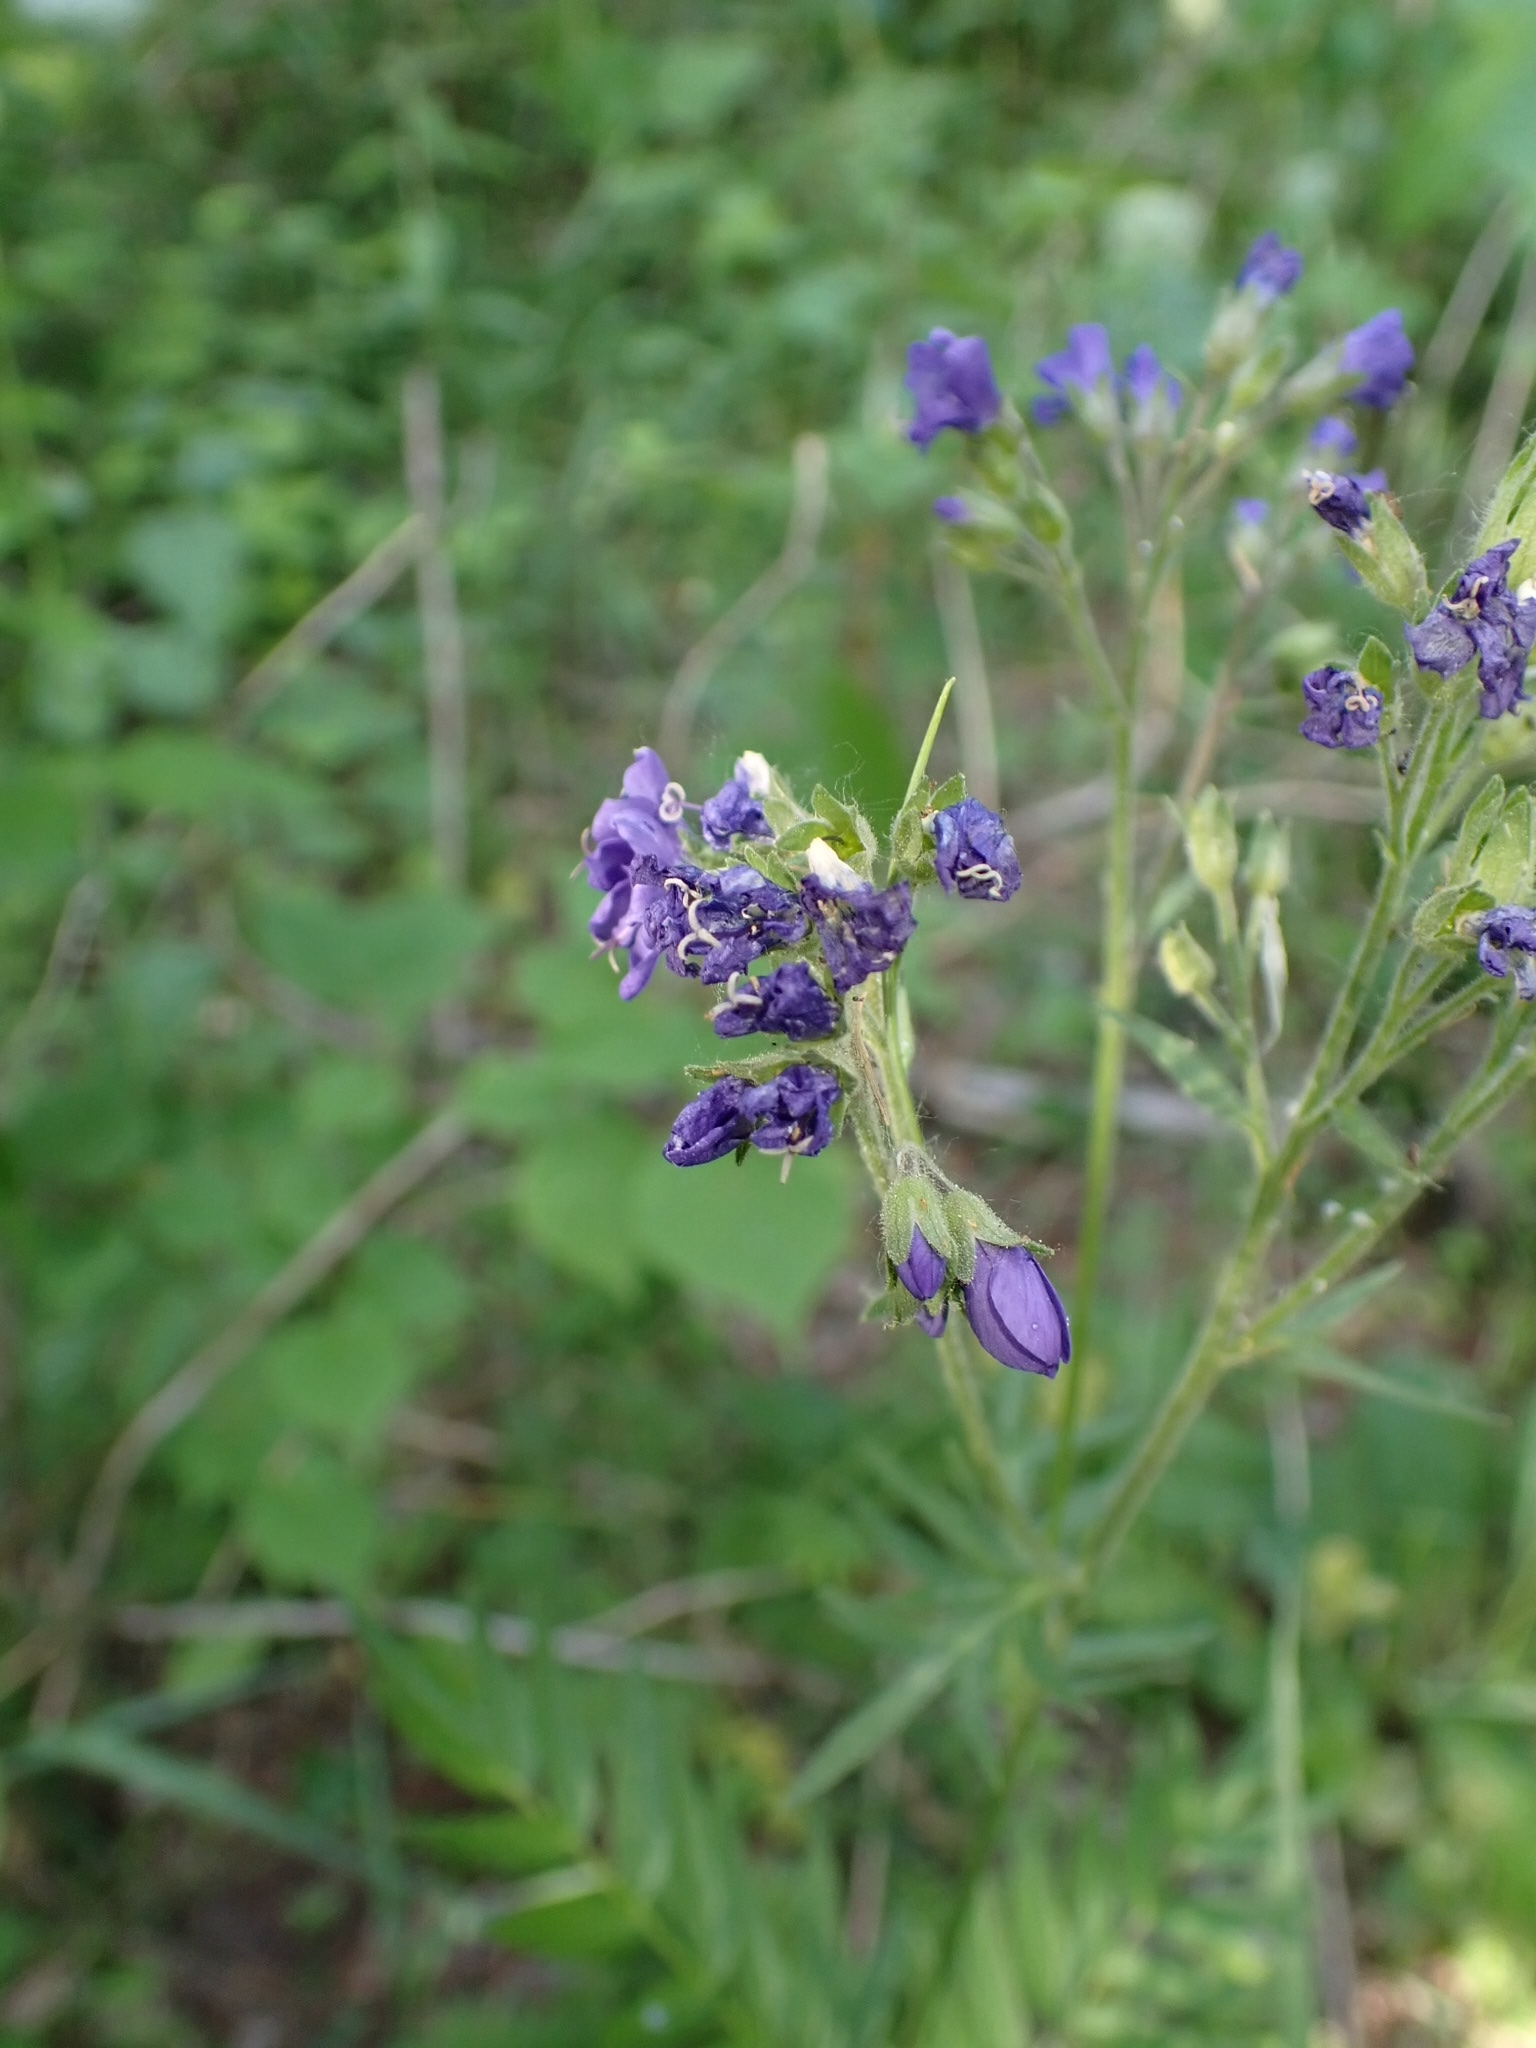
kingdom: Plantae
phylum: Tracheophyta
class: Magnoliopsida
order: Ericales
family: Polemoniaceae
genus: Polemonium
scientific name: Polemonium caeruleum
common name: Jacob's-ladder
